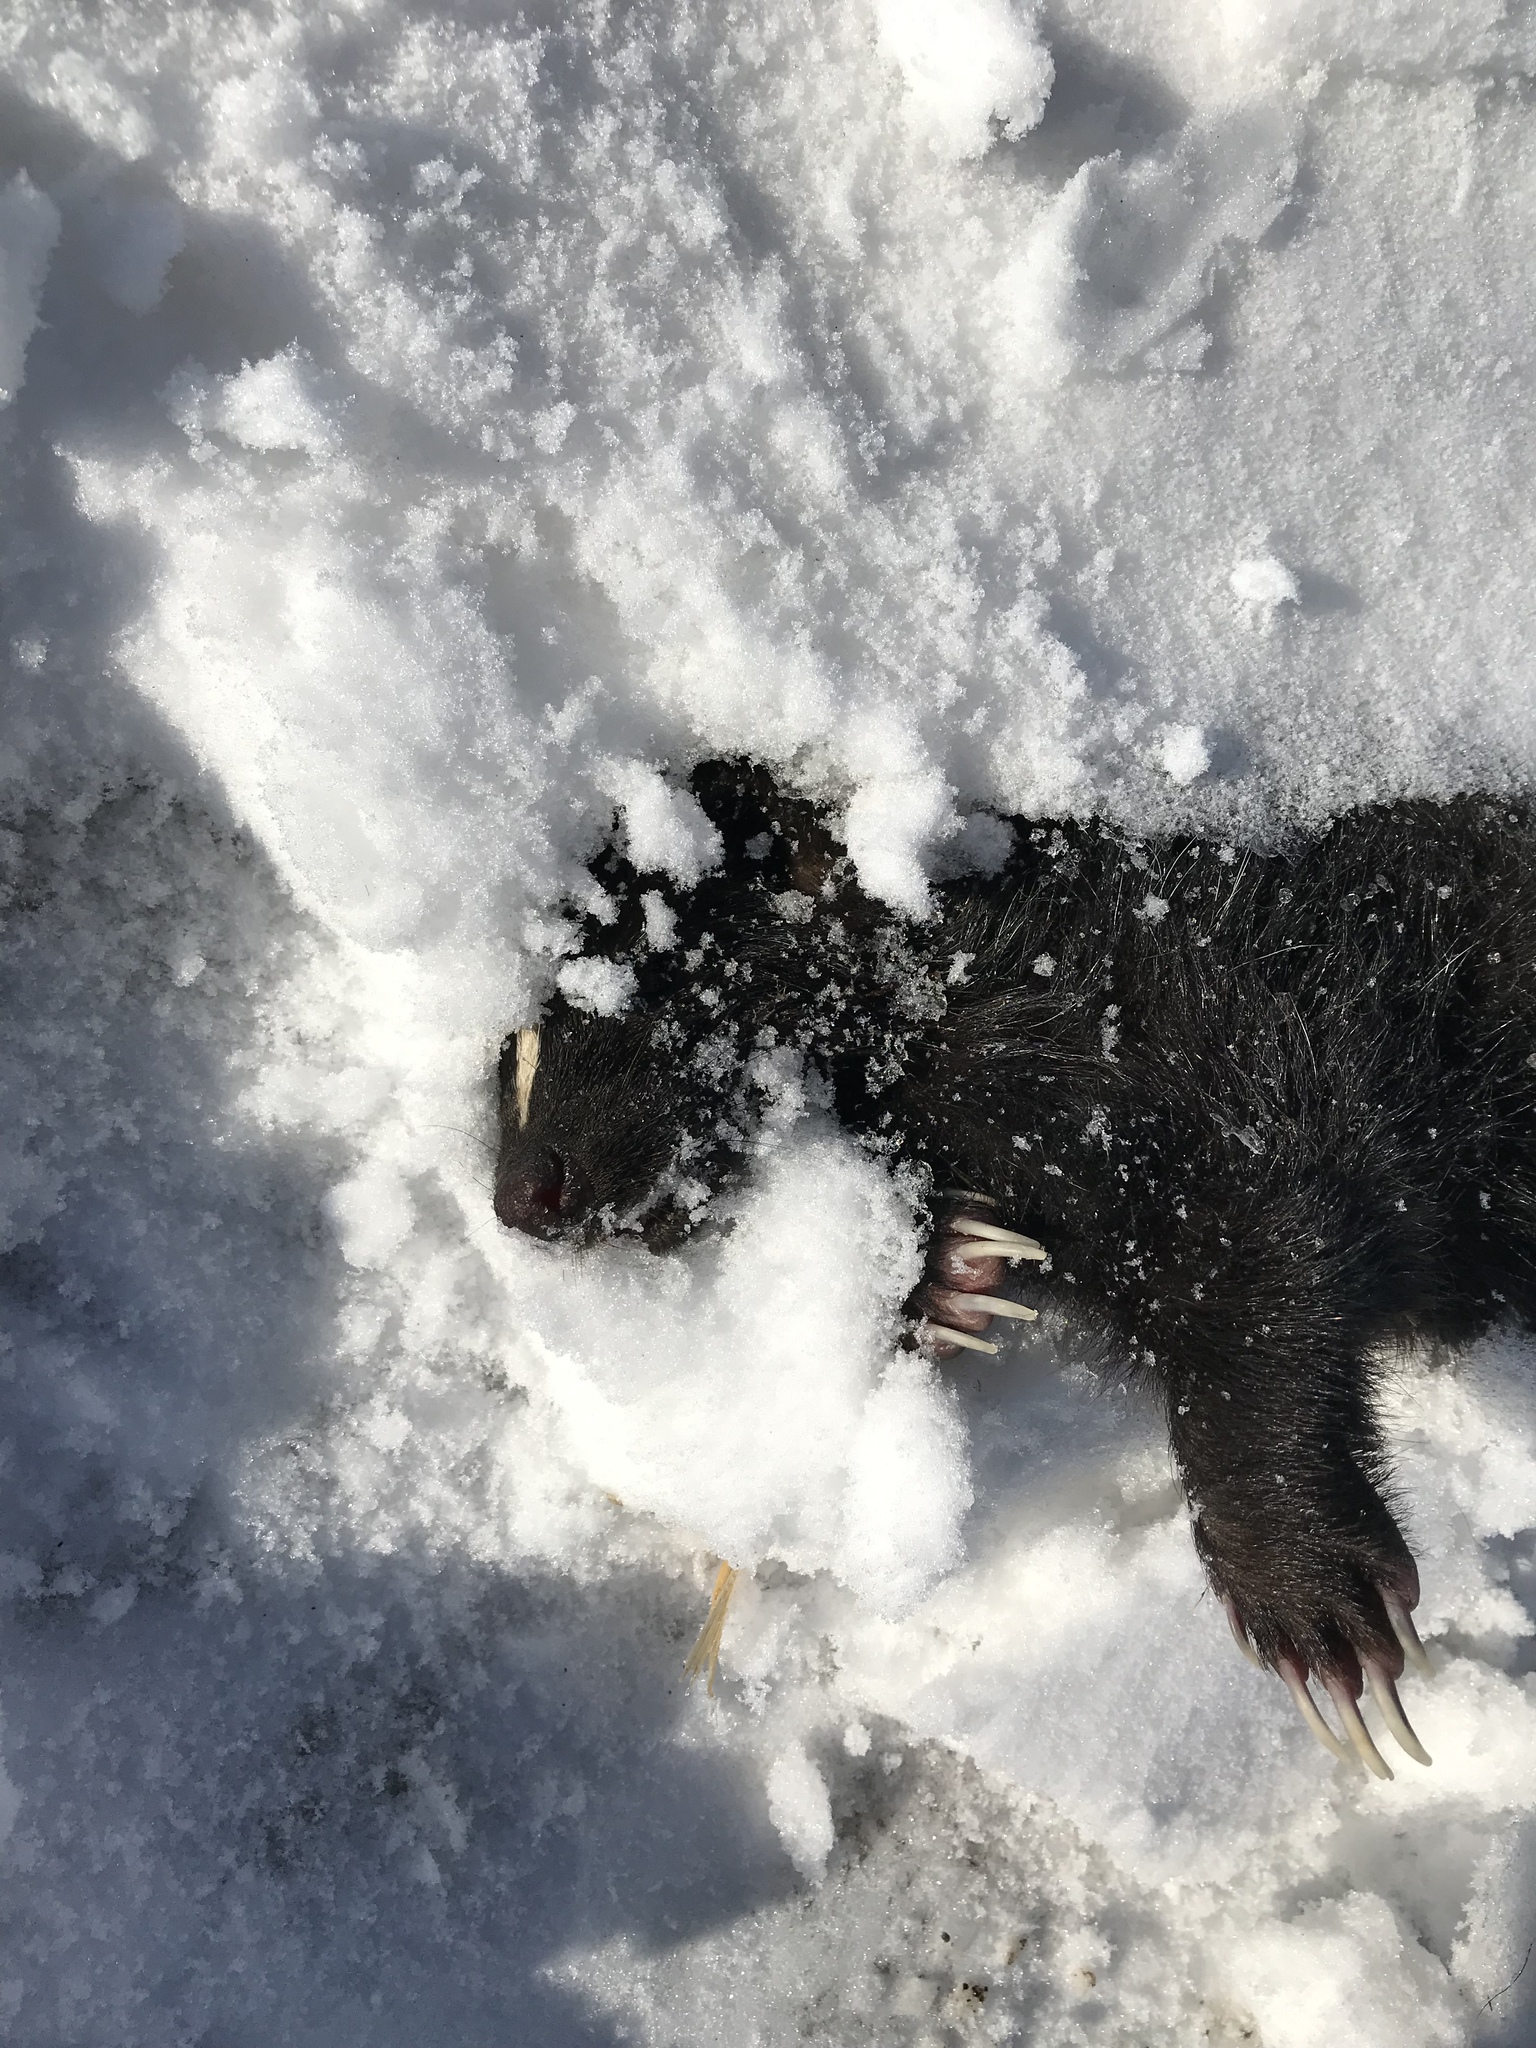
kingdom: Animalia
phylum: Chordata
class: Mammalia
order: Carnivora
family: Mephitidae
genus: Mephitis
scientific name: Mephitis mephitis
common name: Striped skunk
